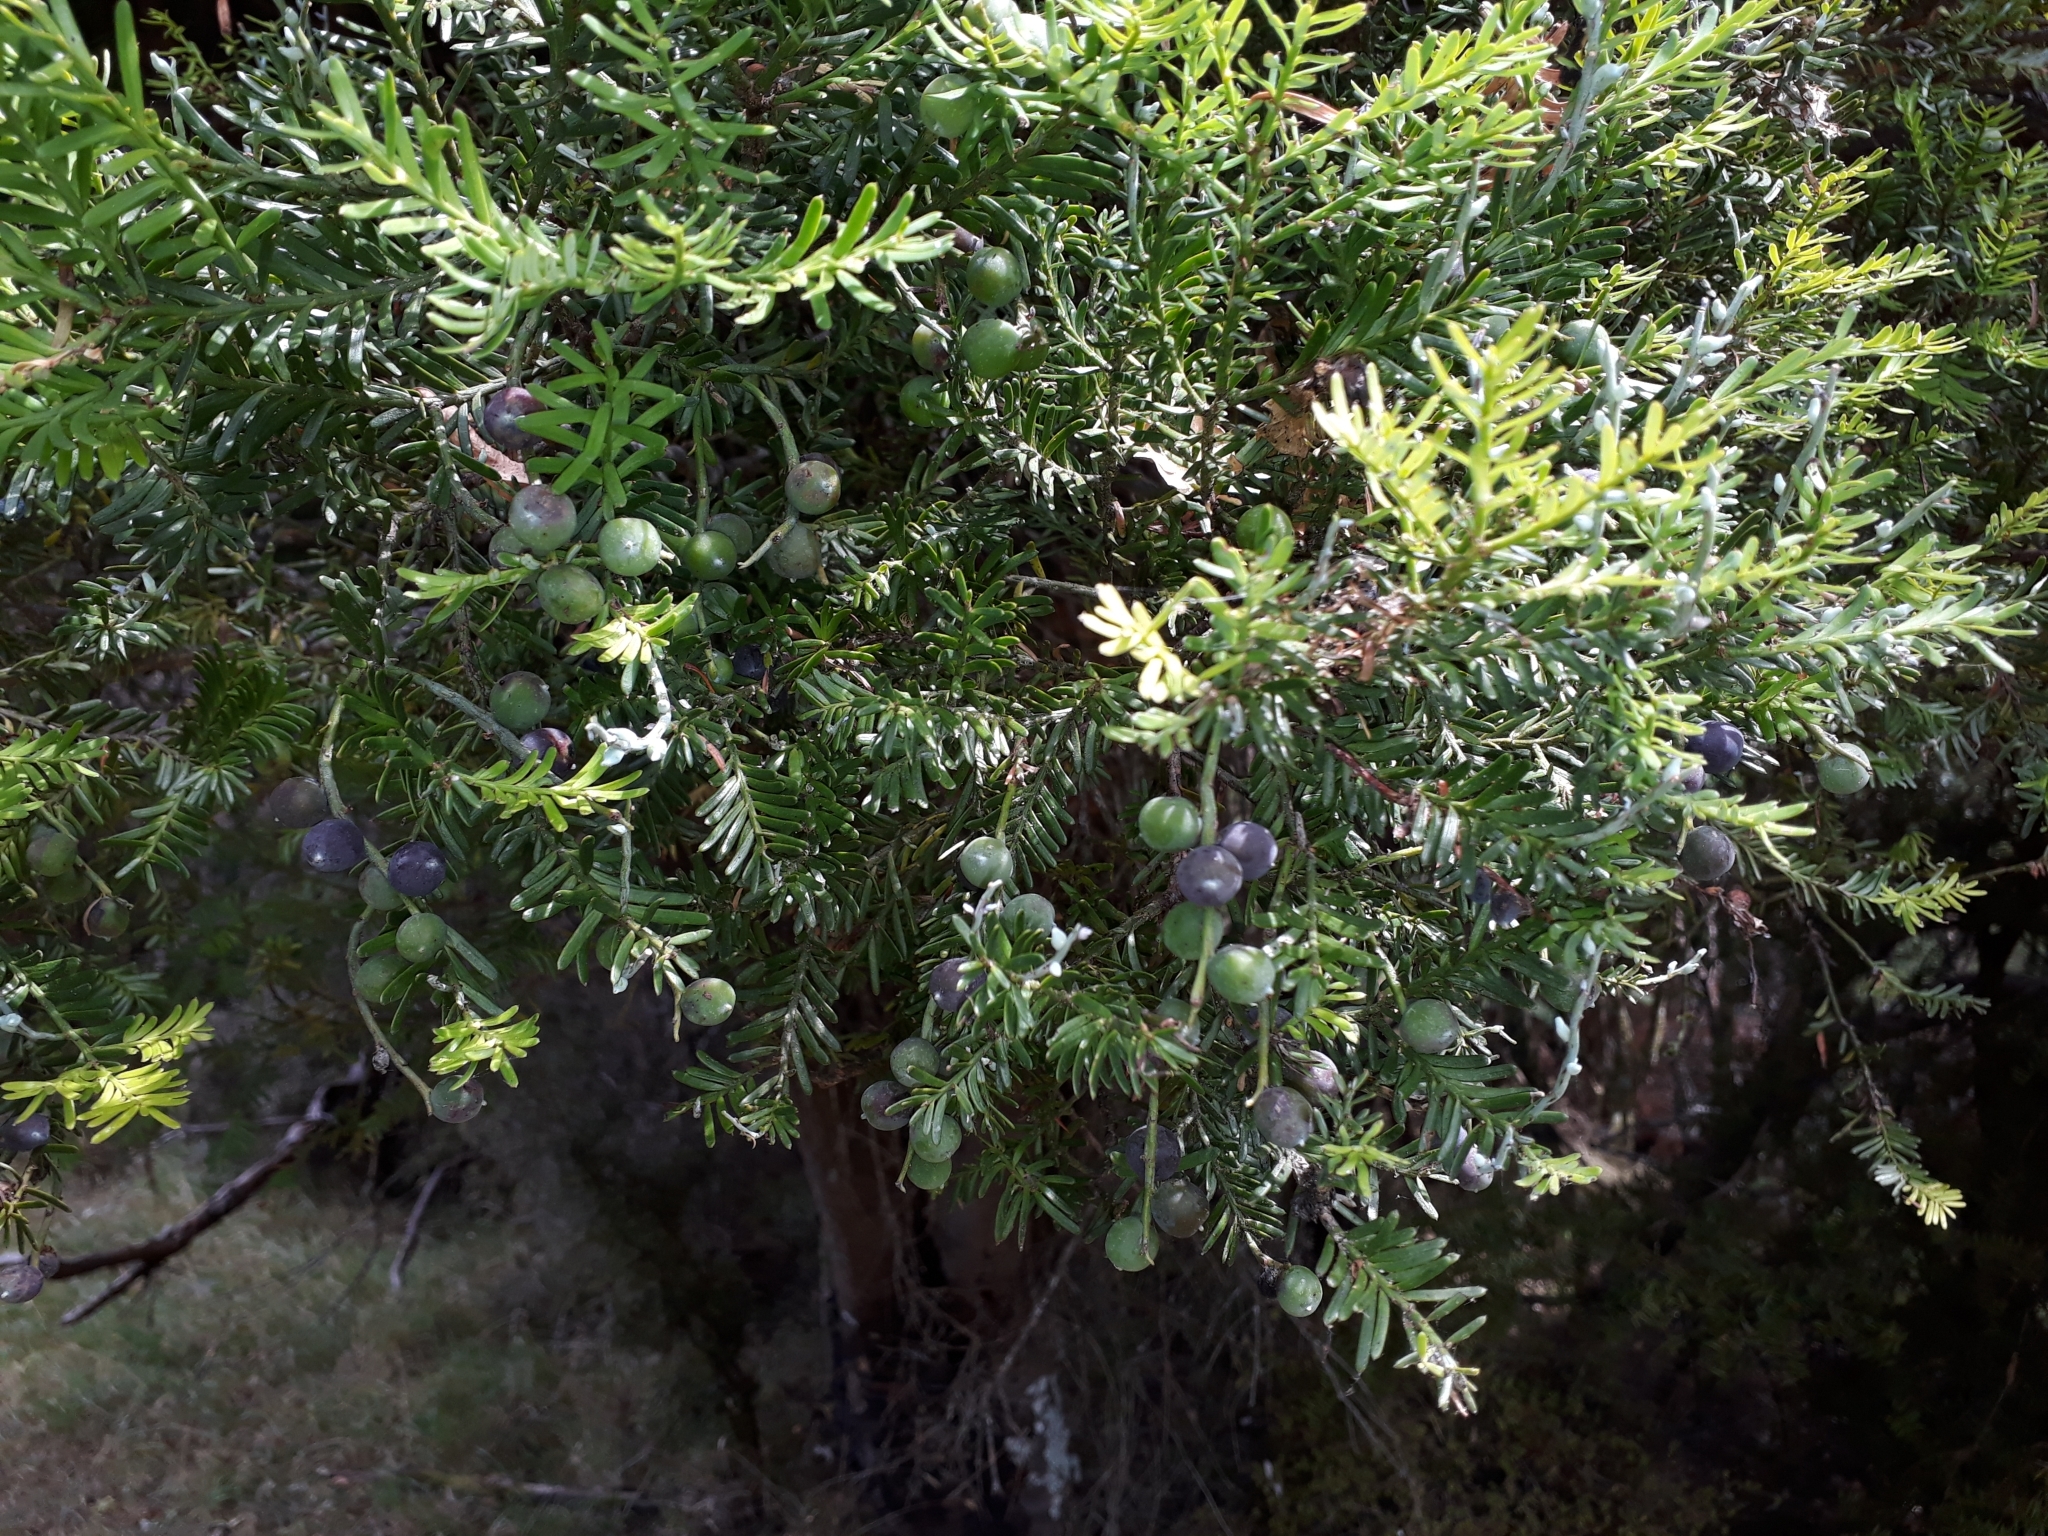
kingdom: Plantae
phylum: Tracheophyta
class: Pinopsida
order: Pinales
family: Podocarpaceae
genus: Prumnopitys
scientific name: Prumnopitys taxifolia
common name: Matai
